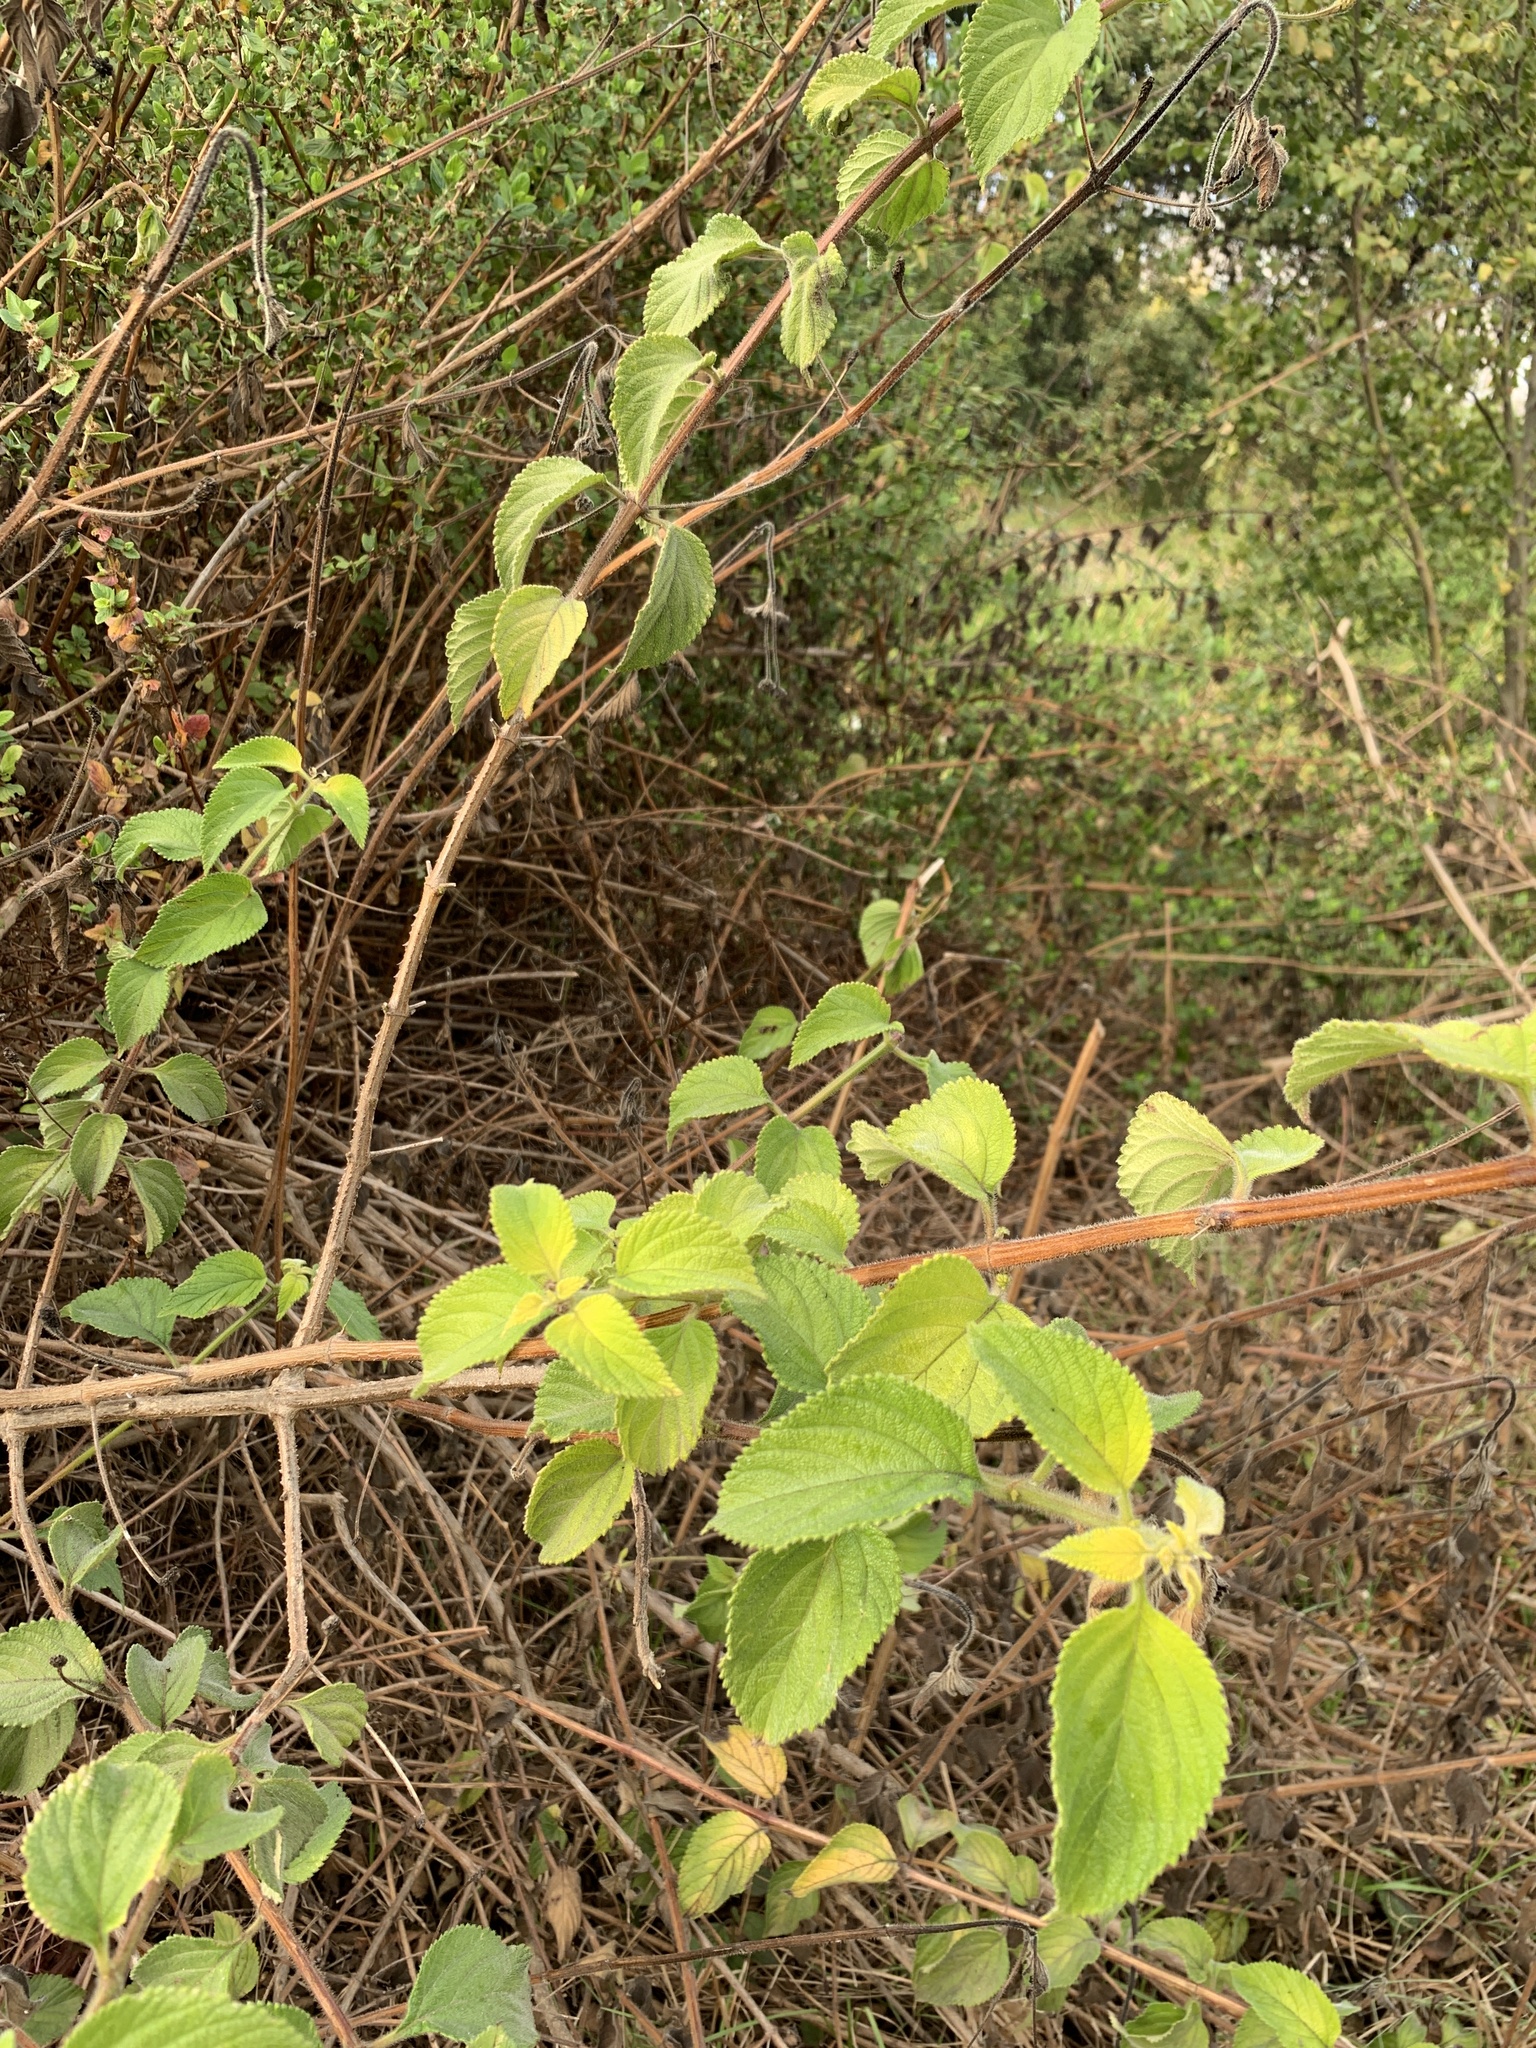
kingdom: Plantae
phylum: Tracheophyta
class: Magnoliopsida
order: Rosales
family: Rosaceae
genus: Cliffortia
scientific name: Cliffortia odorata
